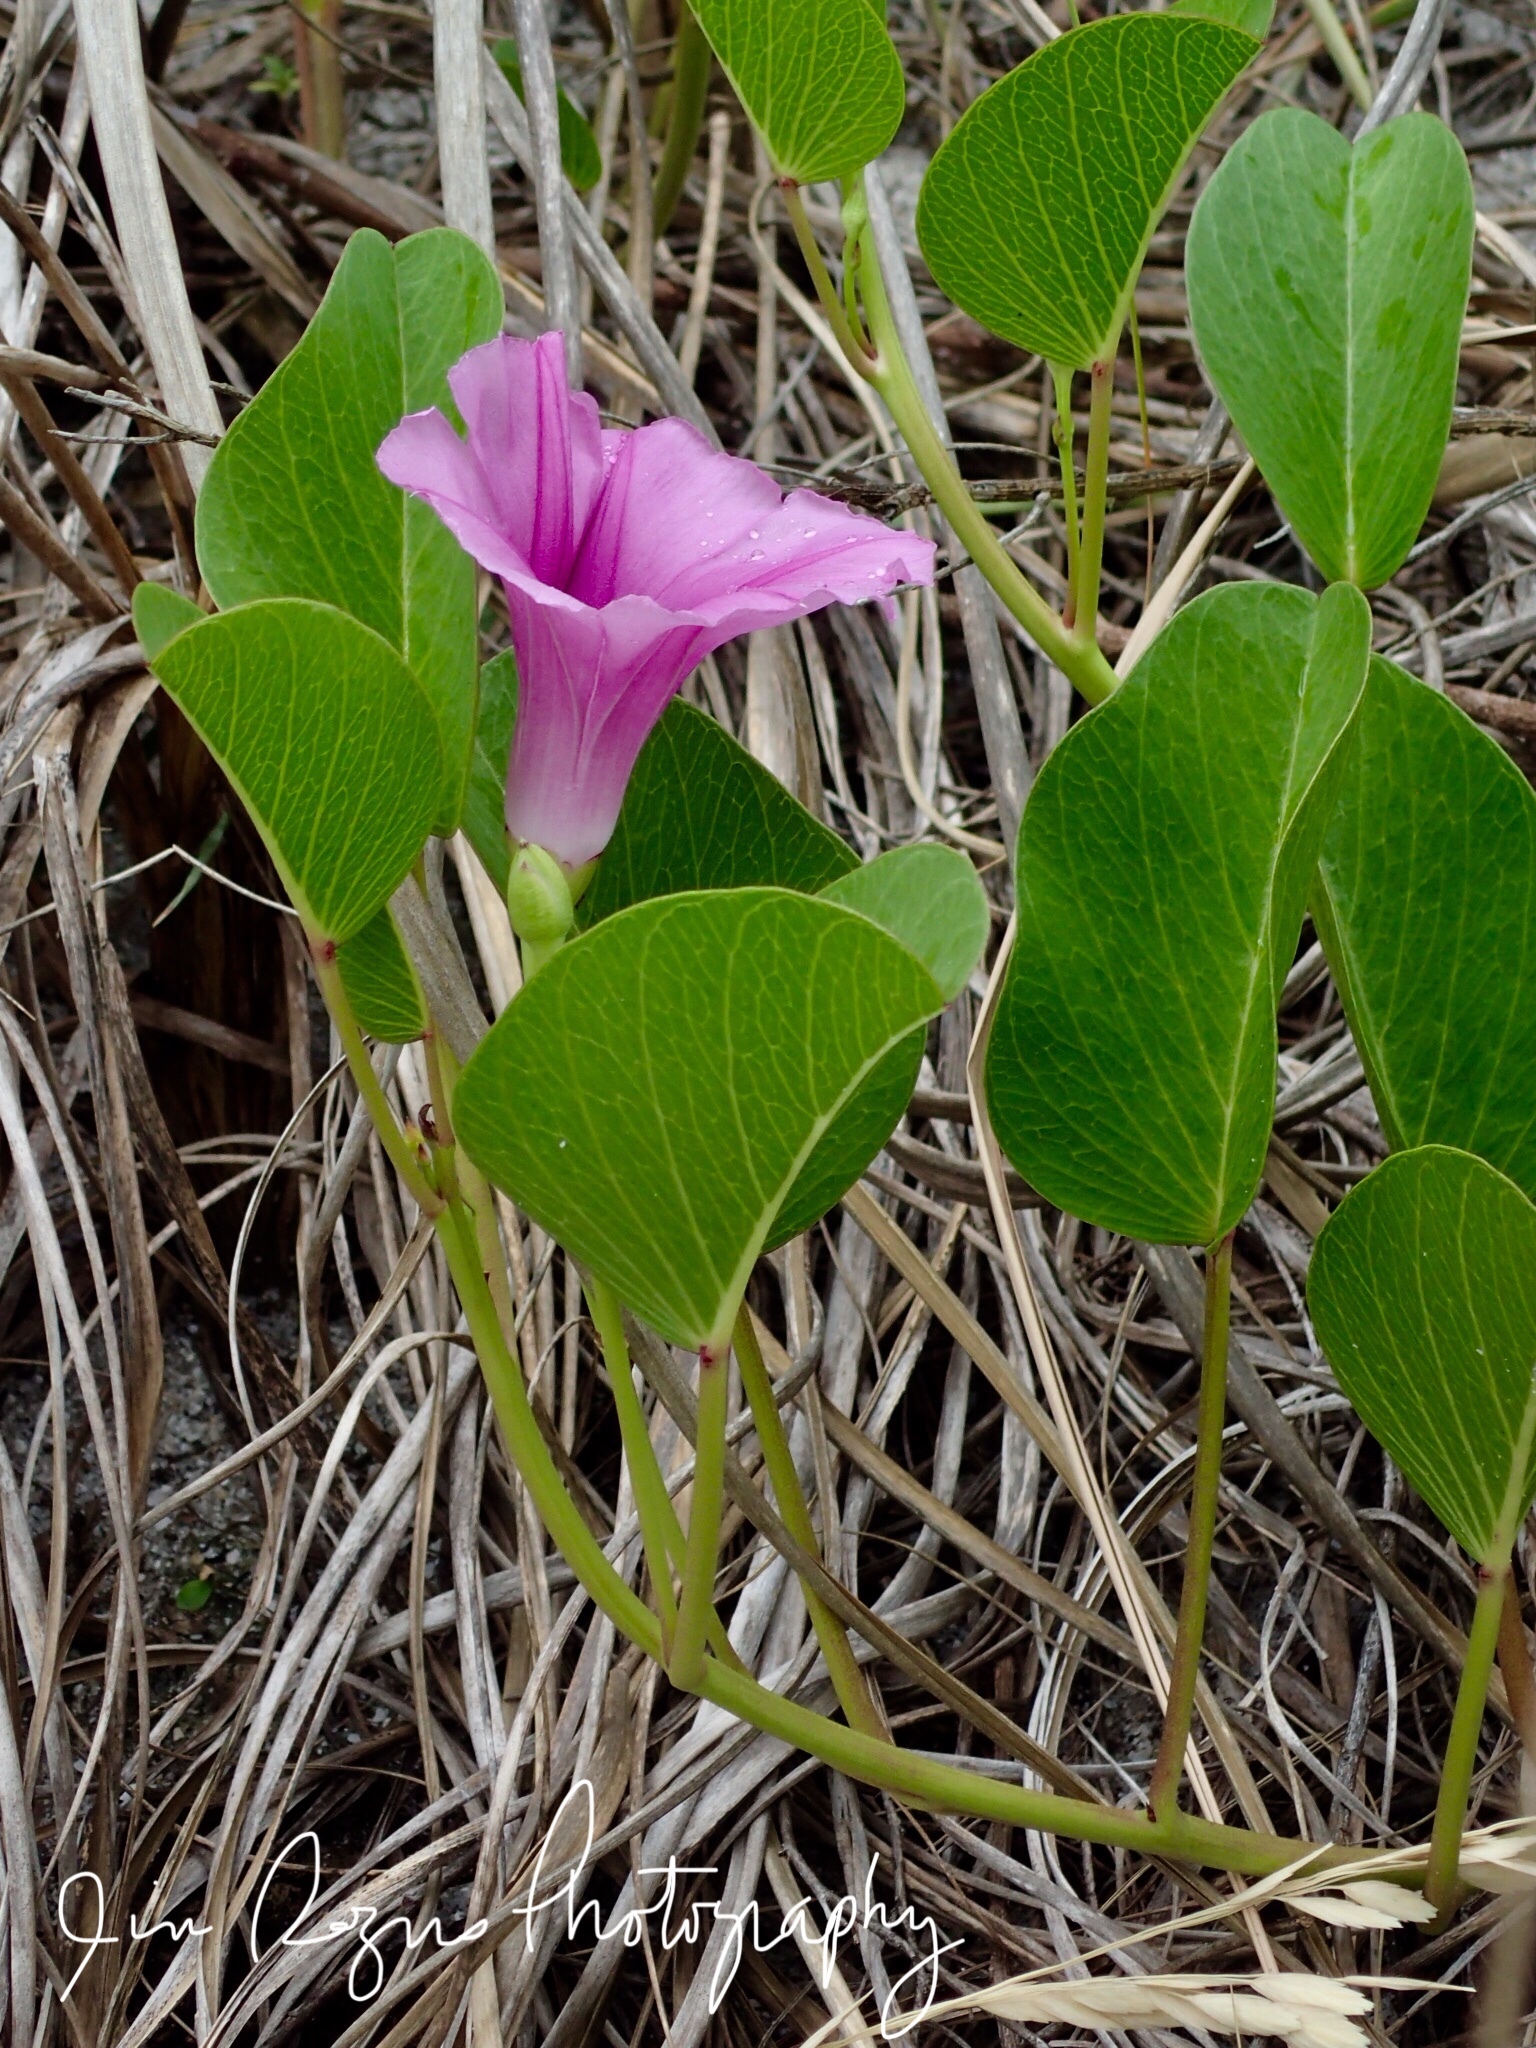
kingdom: Plantae
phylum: Tracheophyta
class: Magnoliopsida
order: Solanales
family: Convolvulaceae
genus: Ipomoea
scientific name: Ipomoea pes-caprae
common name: Beach morning glory
